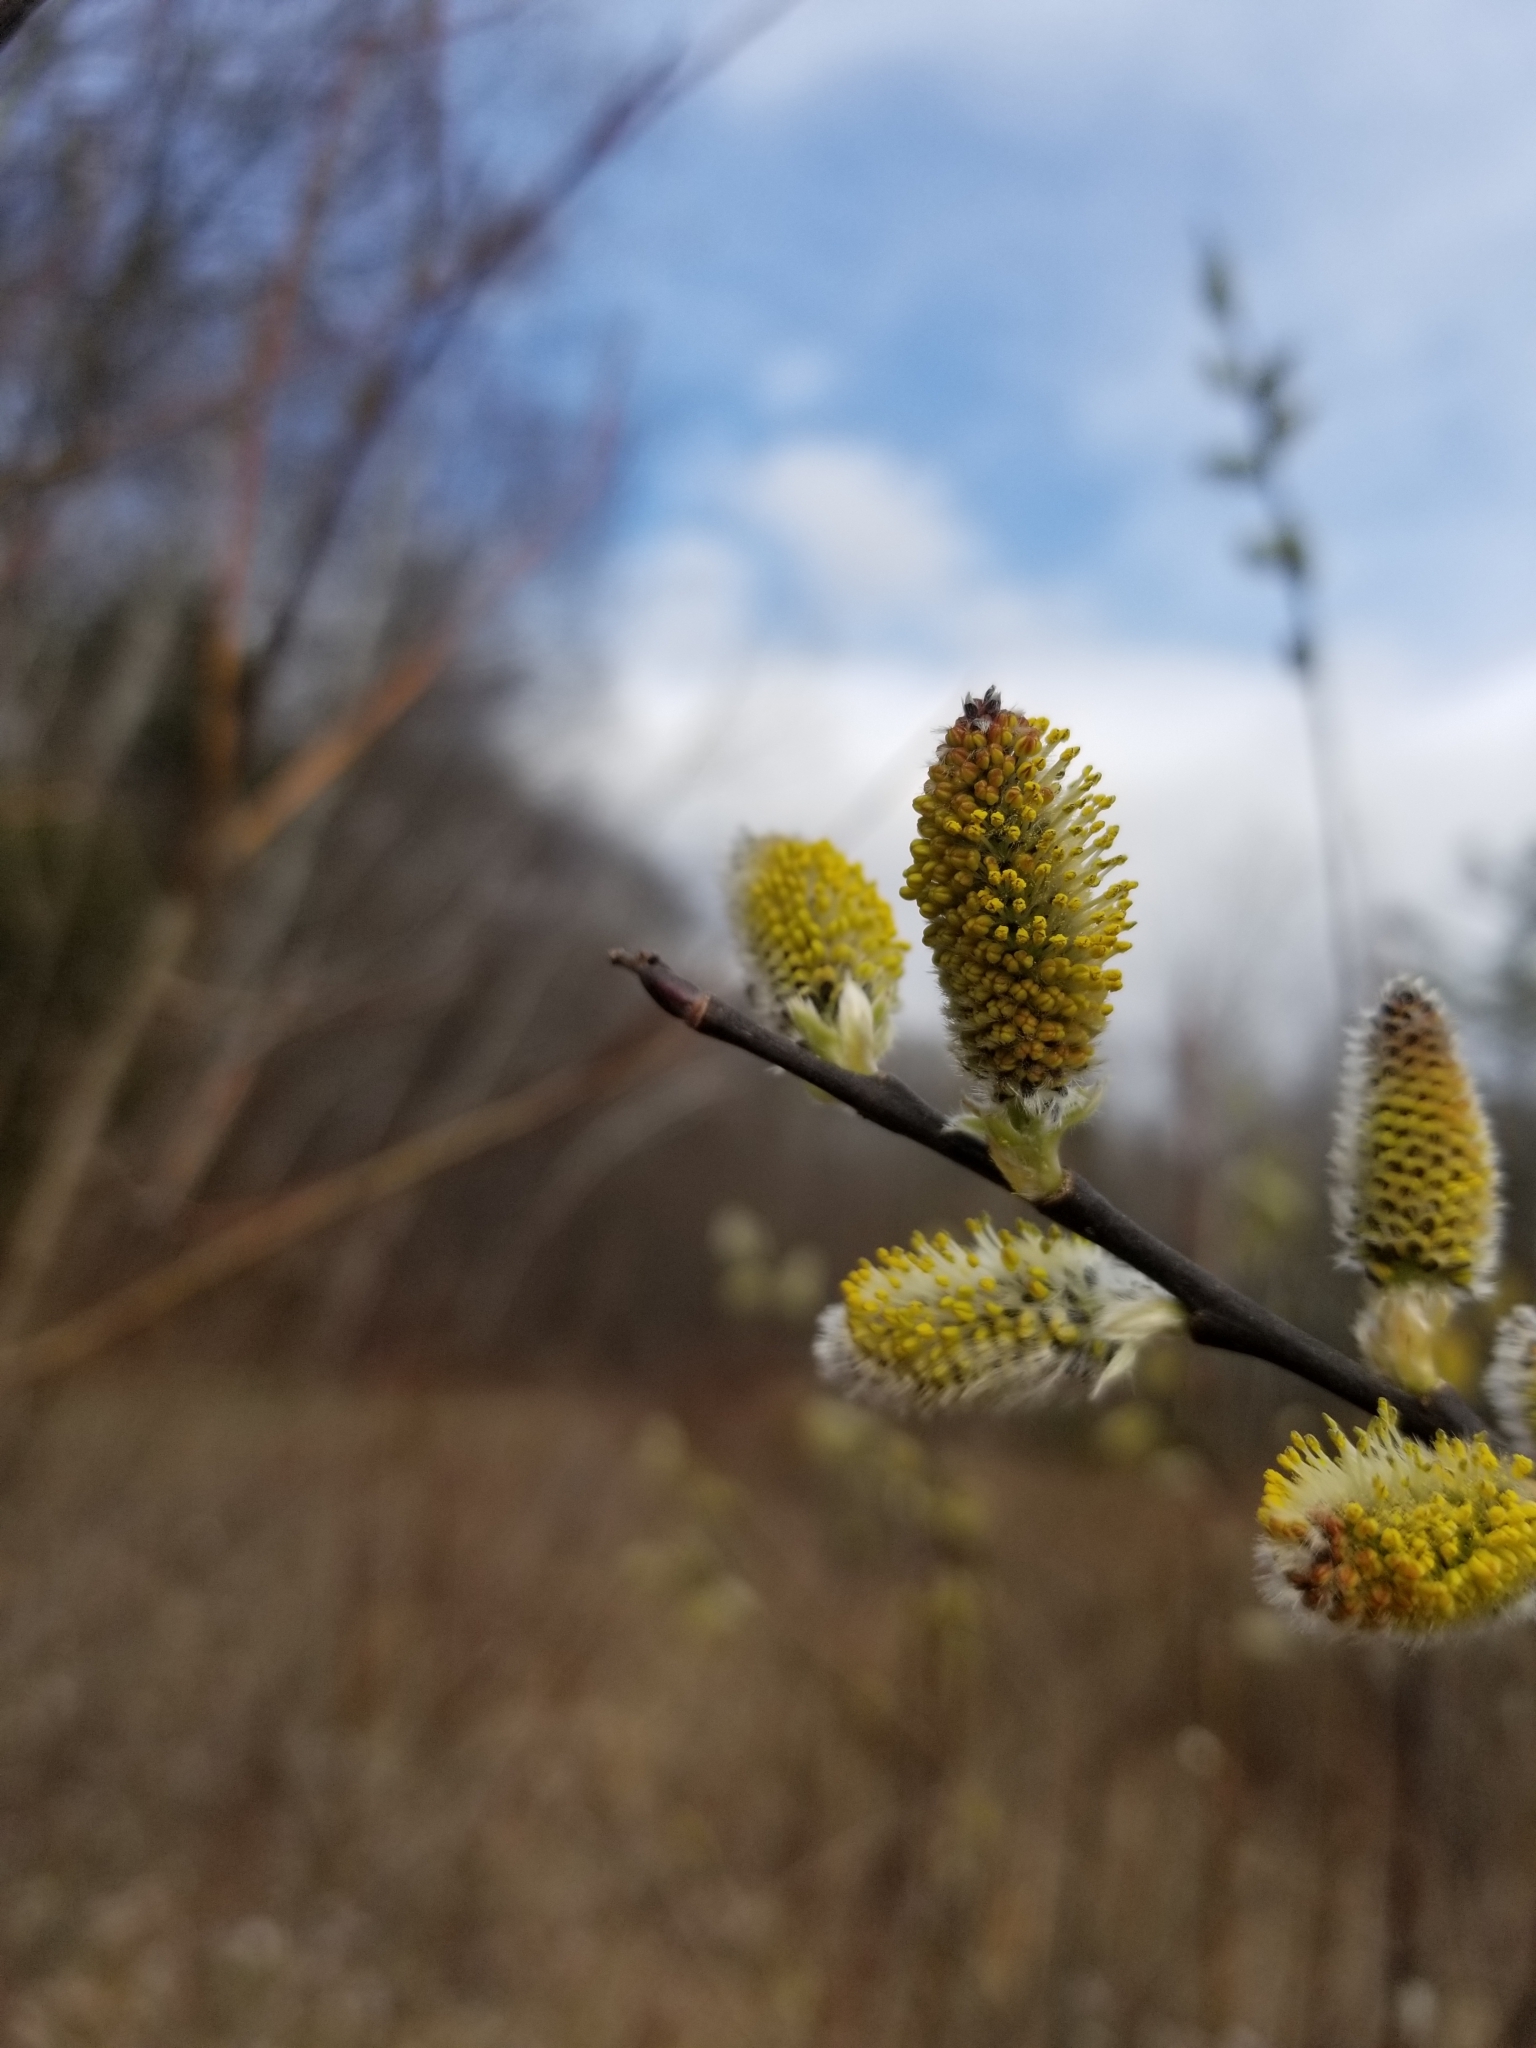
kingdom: Plantae
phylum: Tracheophyta
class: Magnoliopsida
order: Malpighiales
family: Salicaceae
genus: Salix
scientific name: Salix discolor
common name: Glaucous willow
